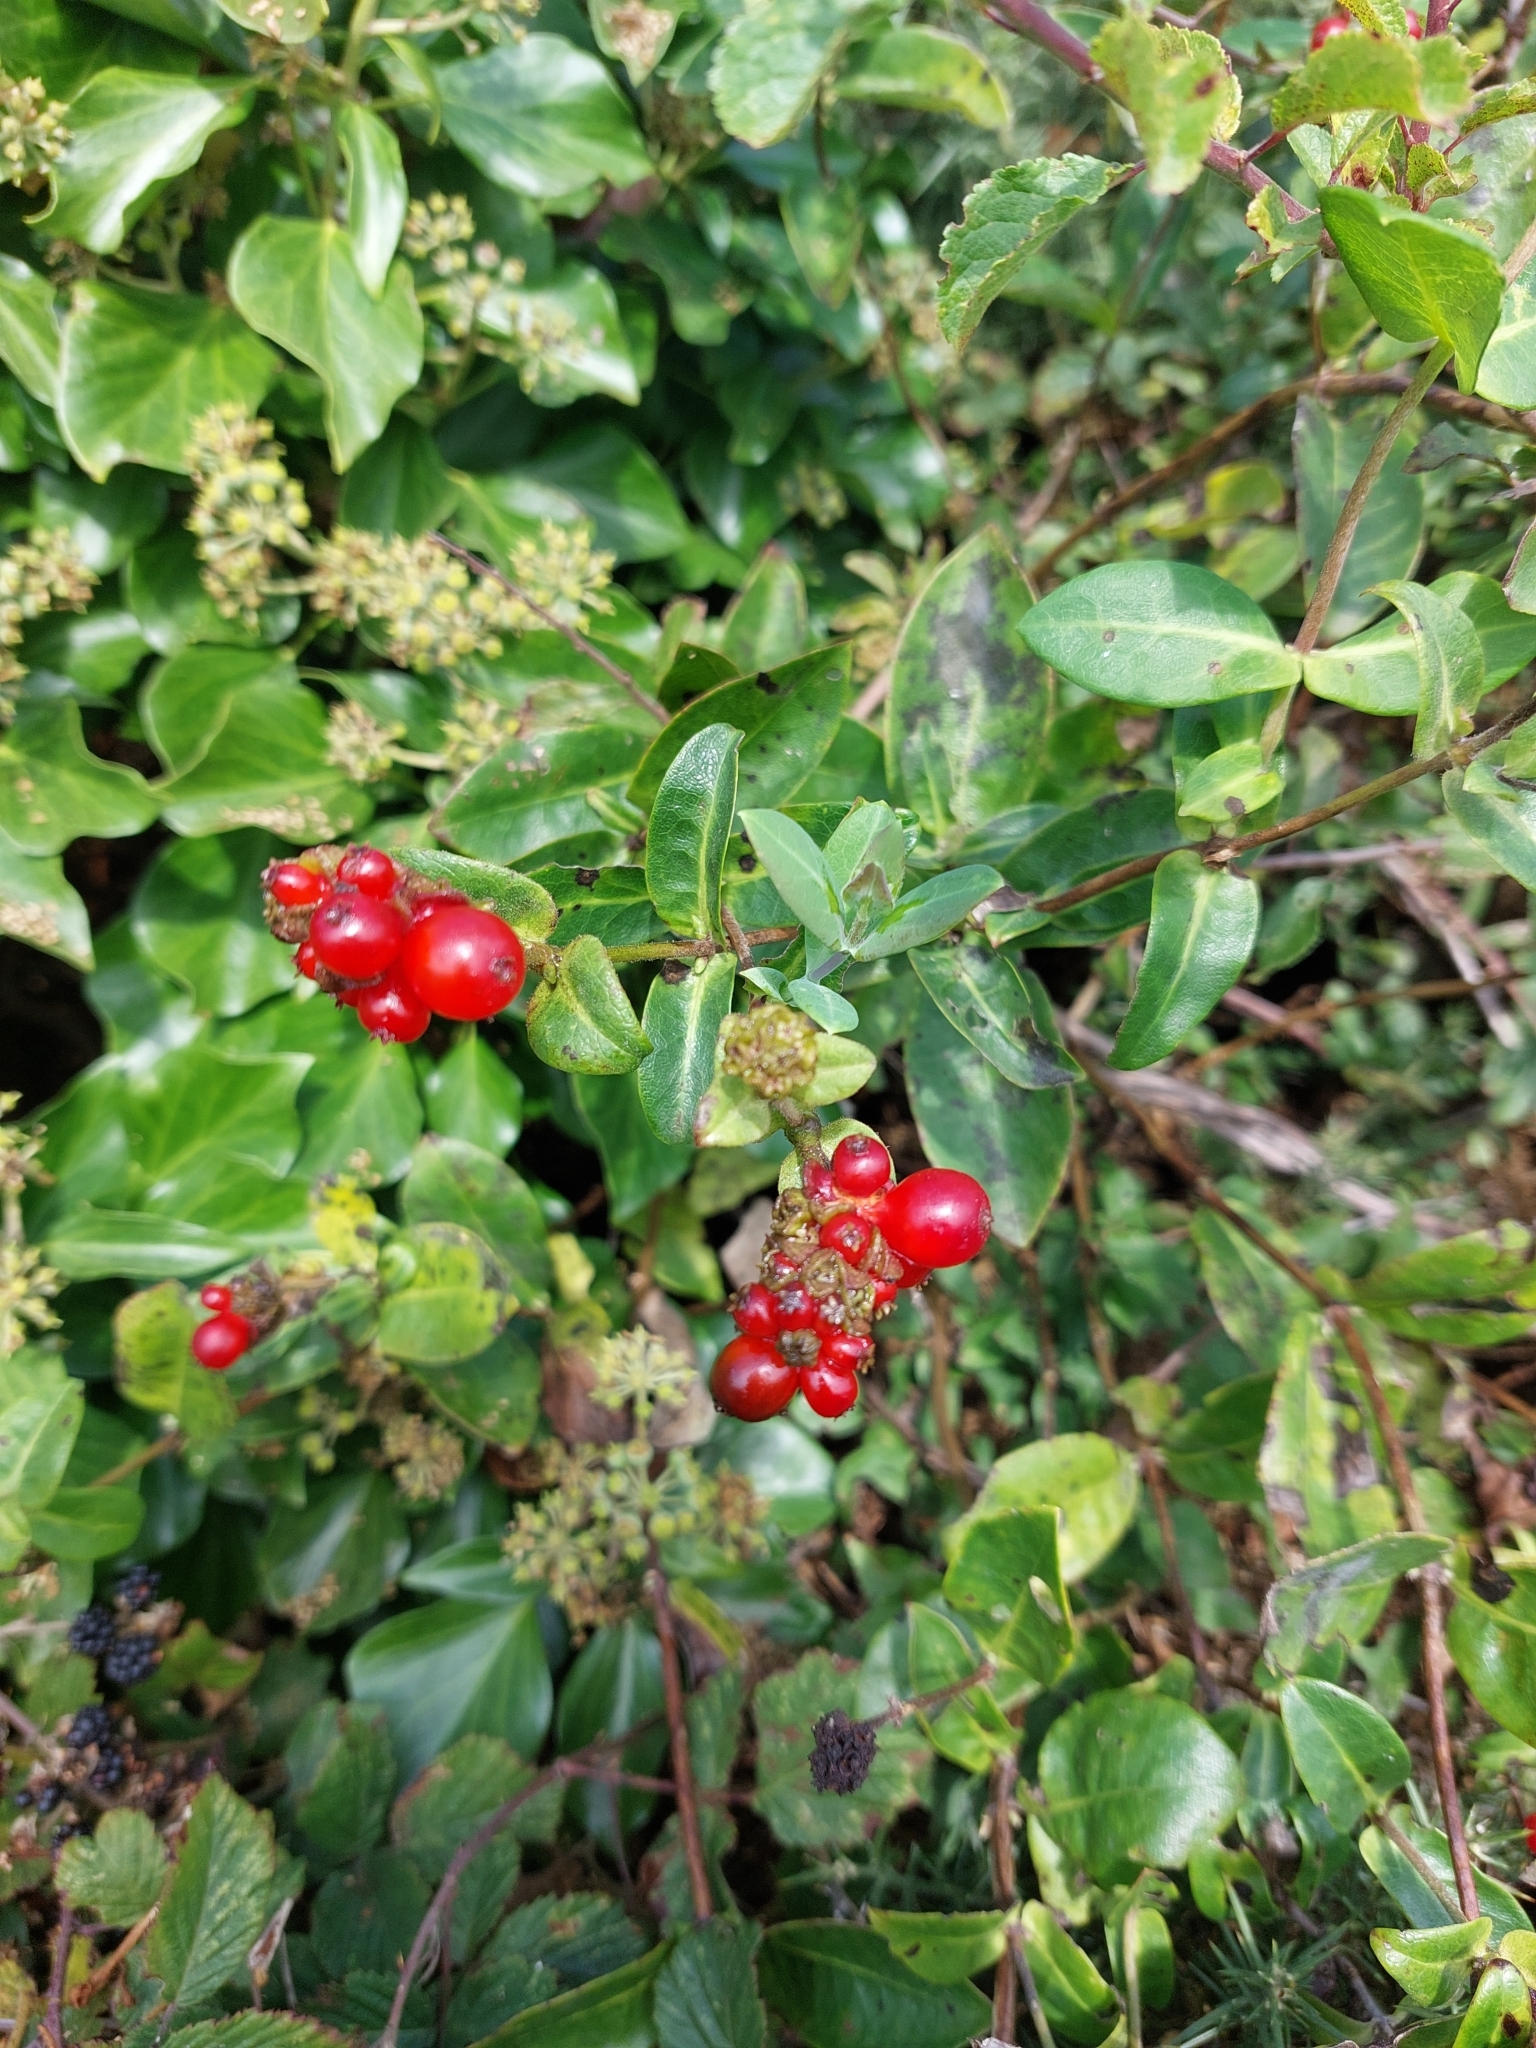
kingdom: Plantae
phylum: Tracheophyta
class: Magnoliopsida
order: Dipsacales
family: Caprifoliaceae
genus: Lonicera
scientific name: Lonicera periclymenum
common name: European honeysuckle
